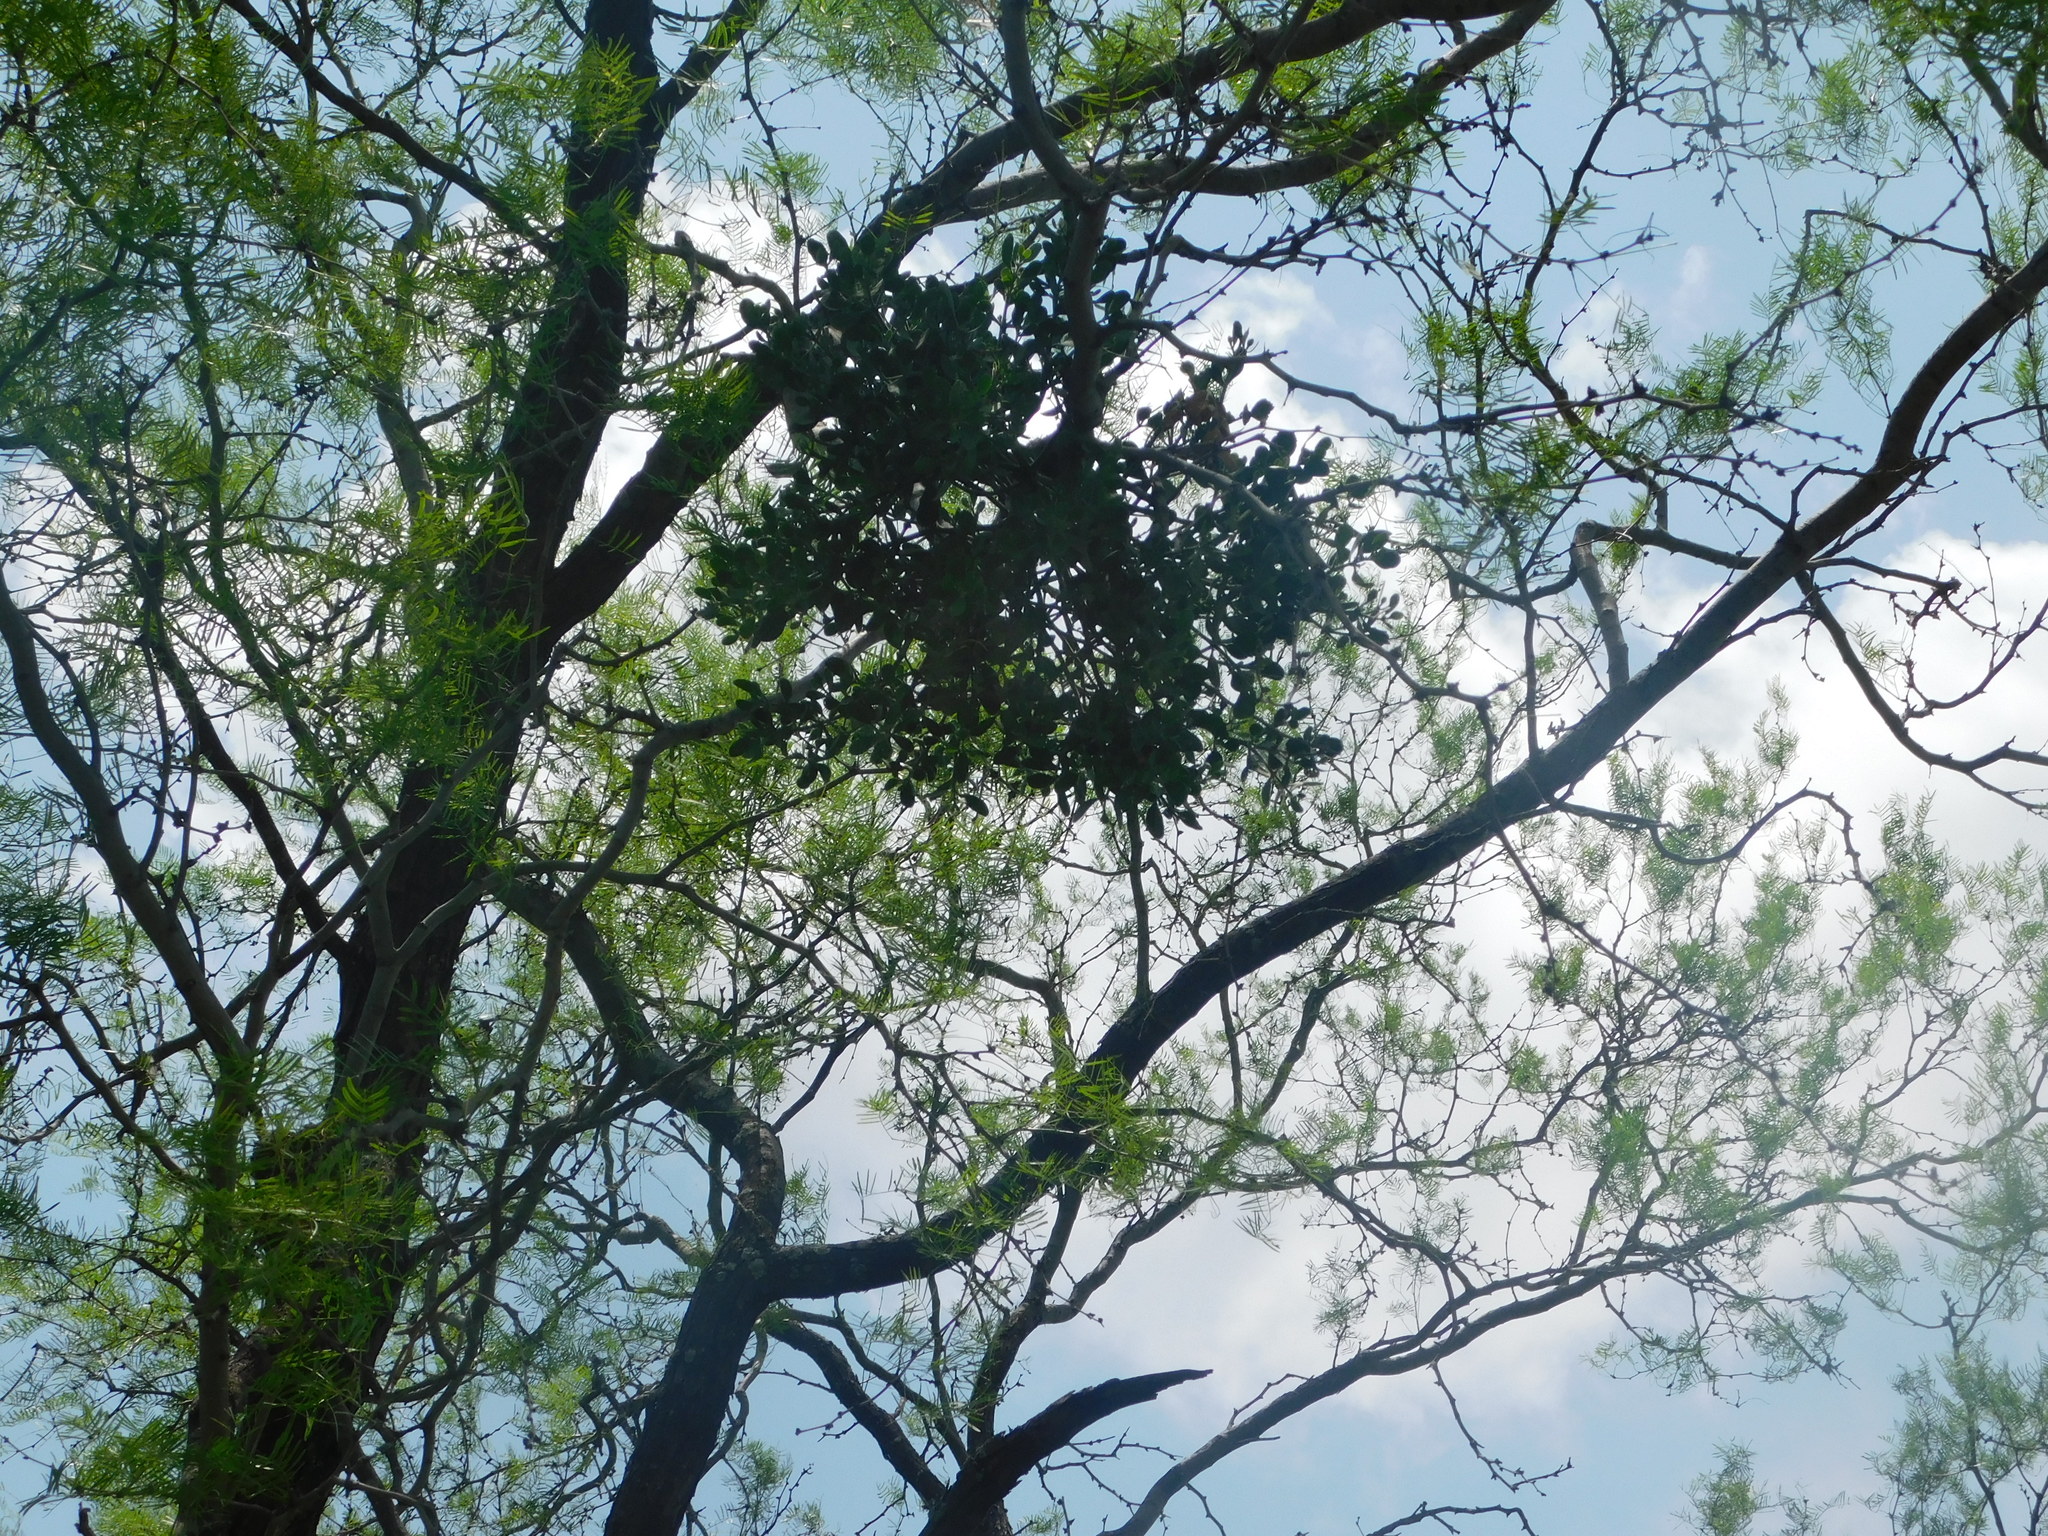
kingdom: Plantae
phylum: Tracheophyta
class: Magnoliopsida
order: Santalales
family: Viscaceae
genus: Phoradendron
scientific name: Phoradendron leucarpum
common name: Pacific mistletoe
